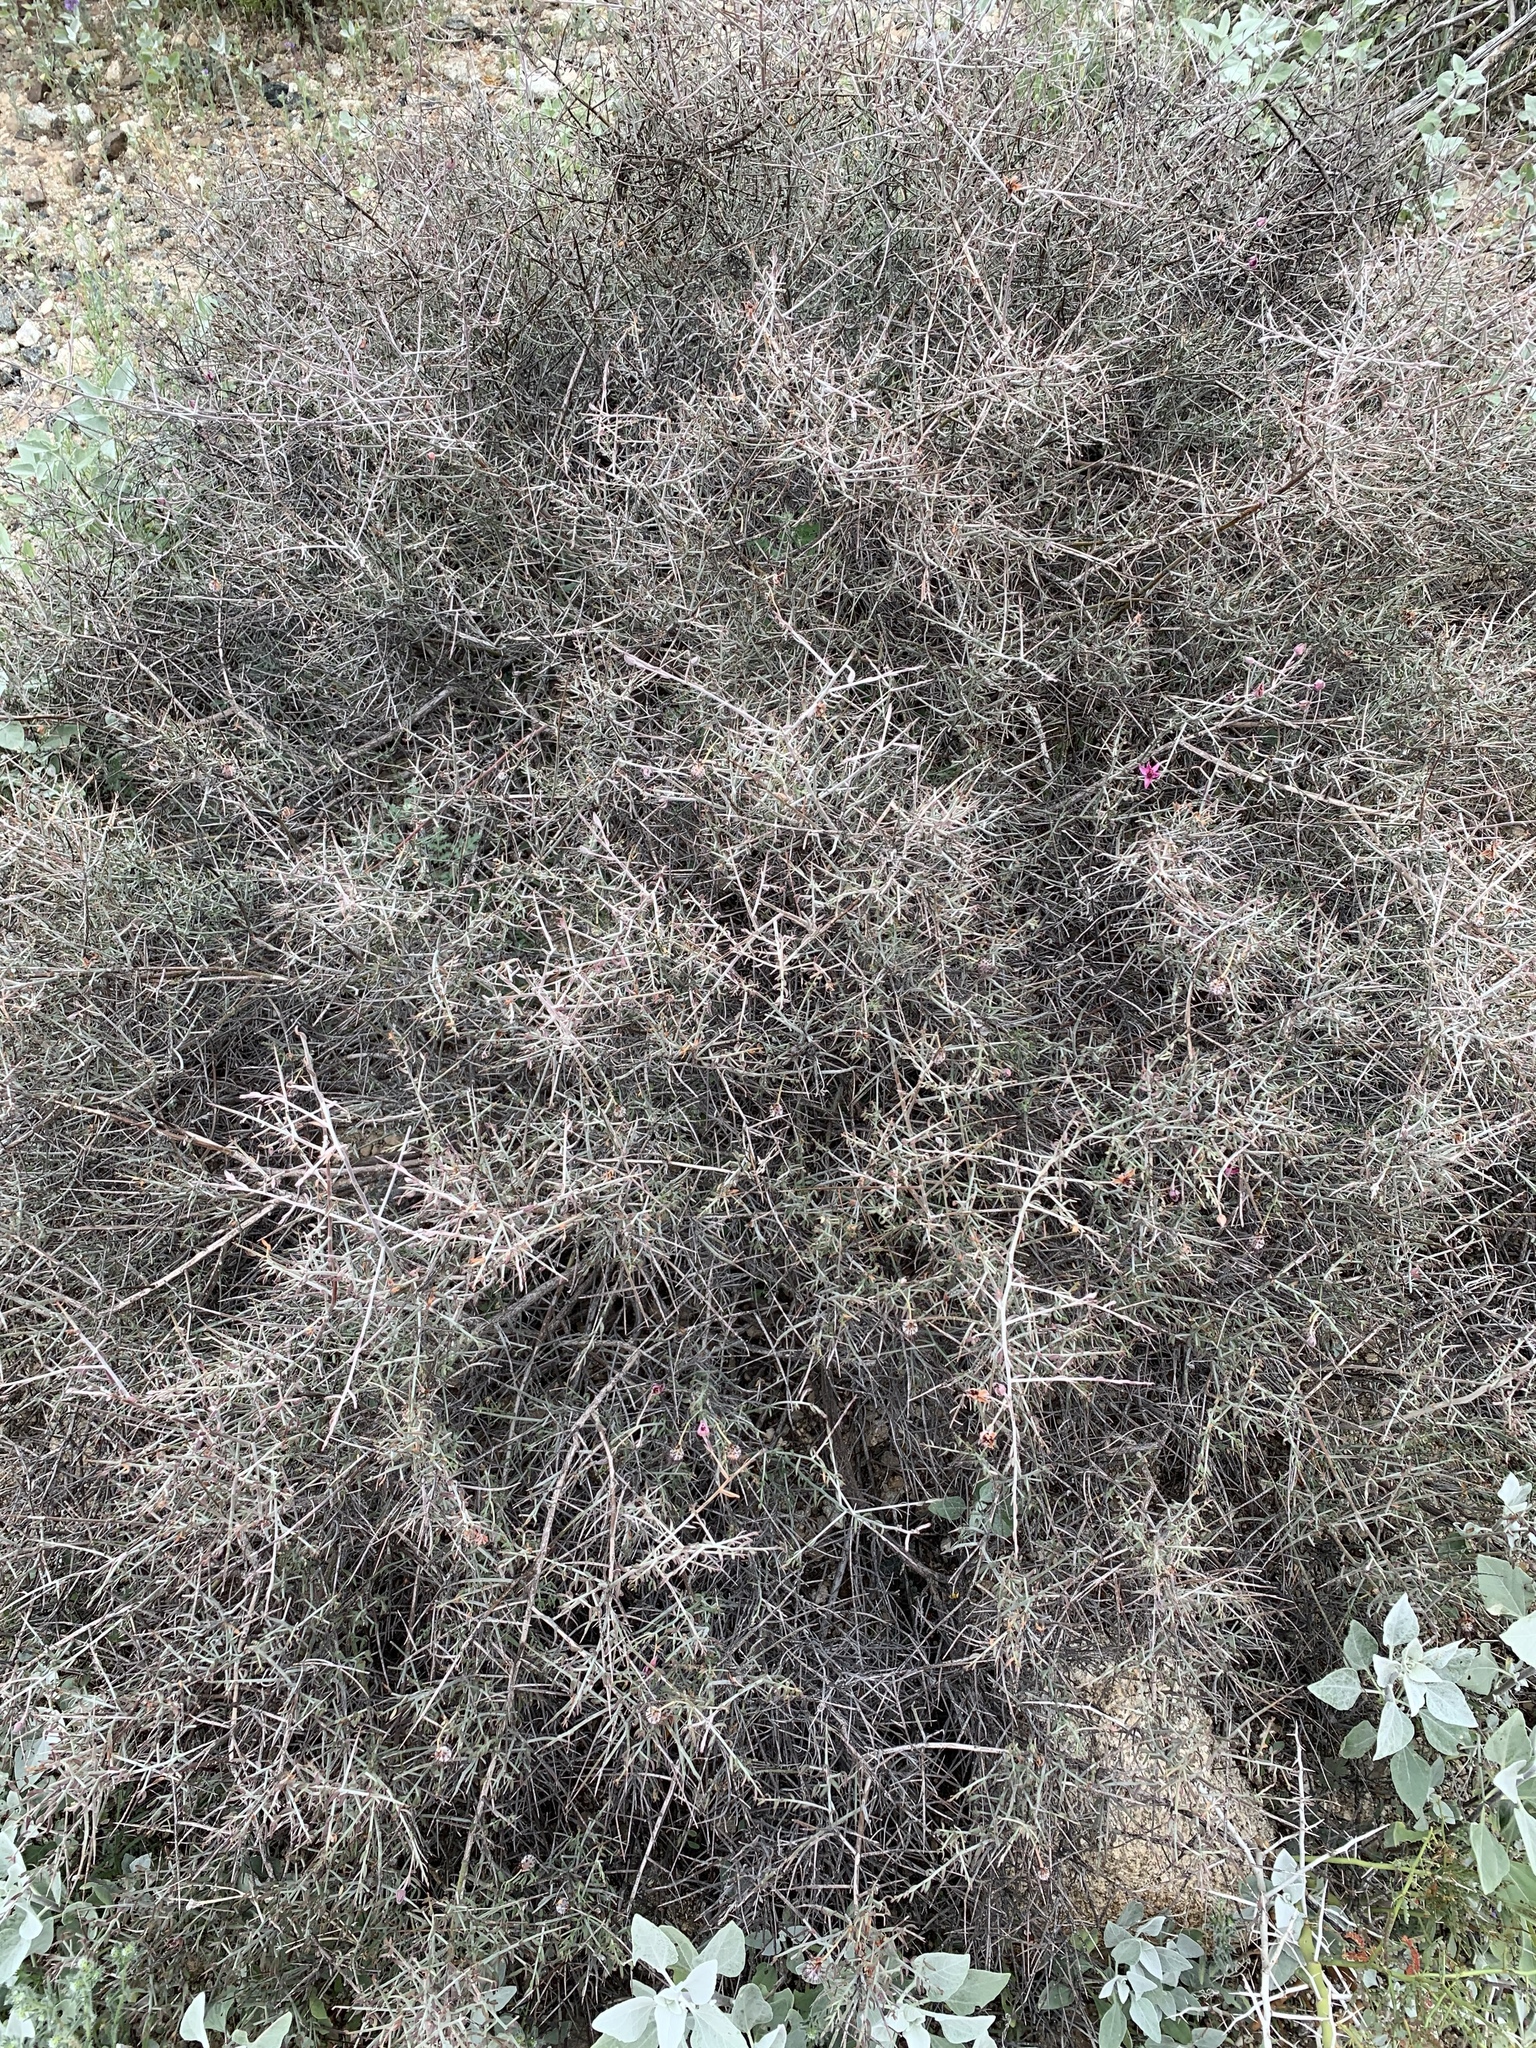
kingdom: Plantae
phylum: Tracheophyta
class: Magnoliopsida
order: Zygophyllales
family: Krameriaceae
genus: Krameria
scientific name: Krameria bicolor
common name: White ratany
